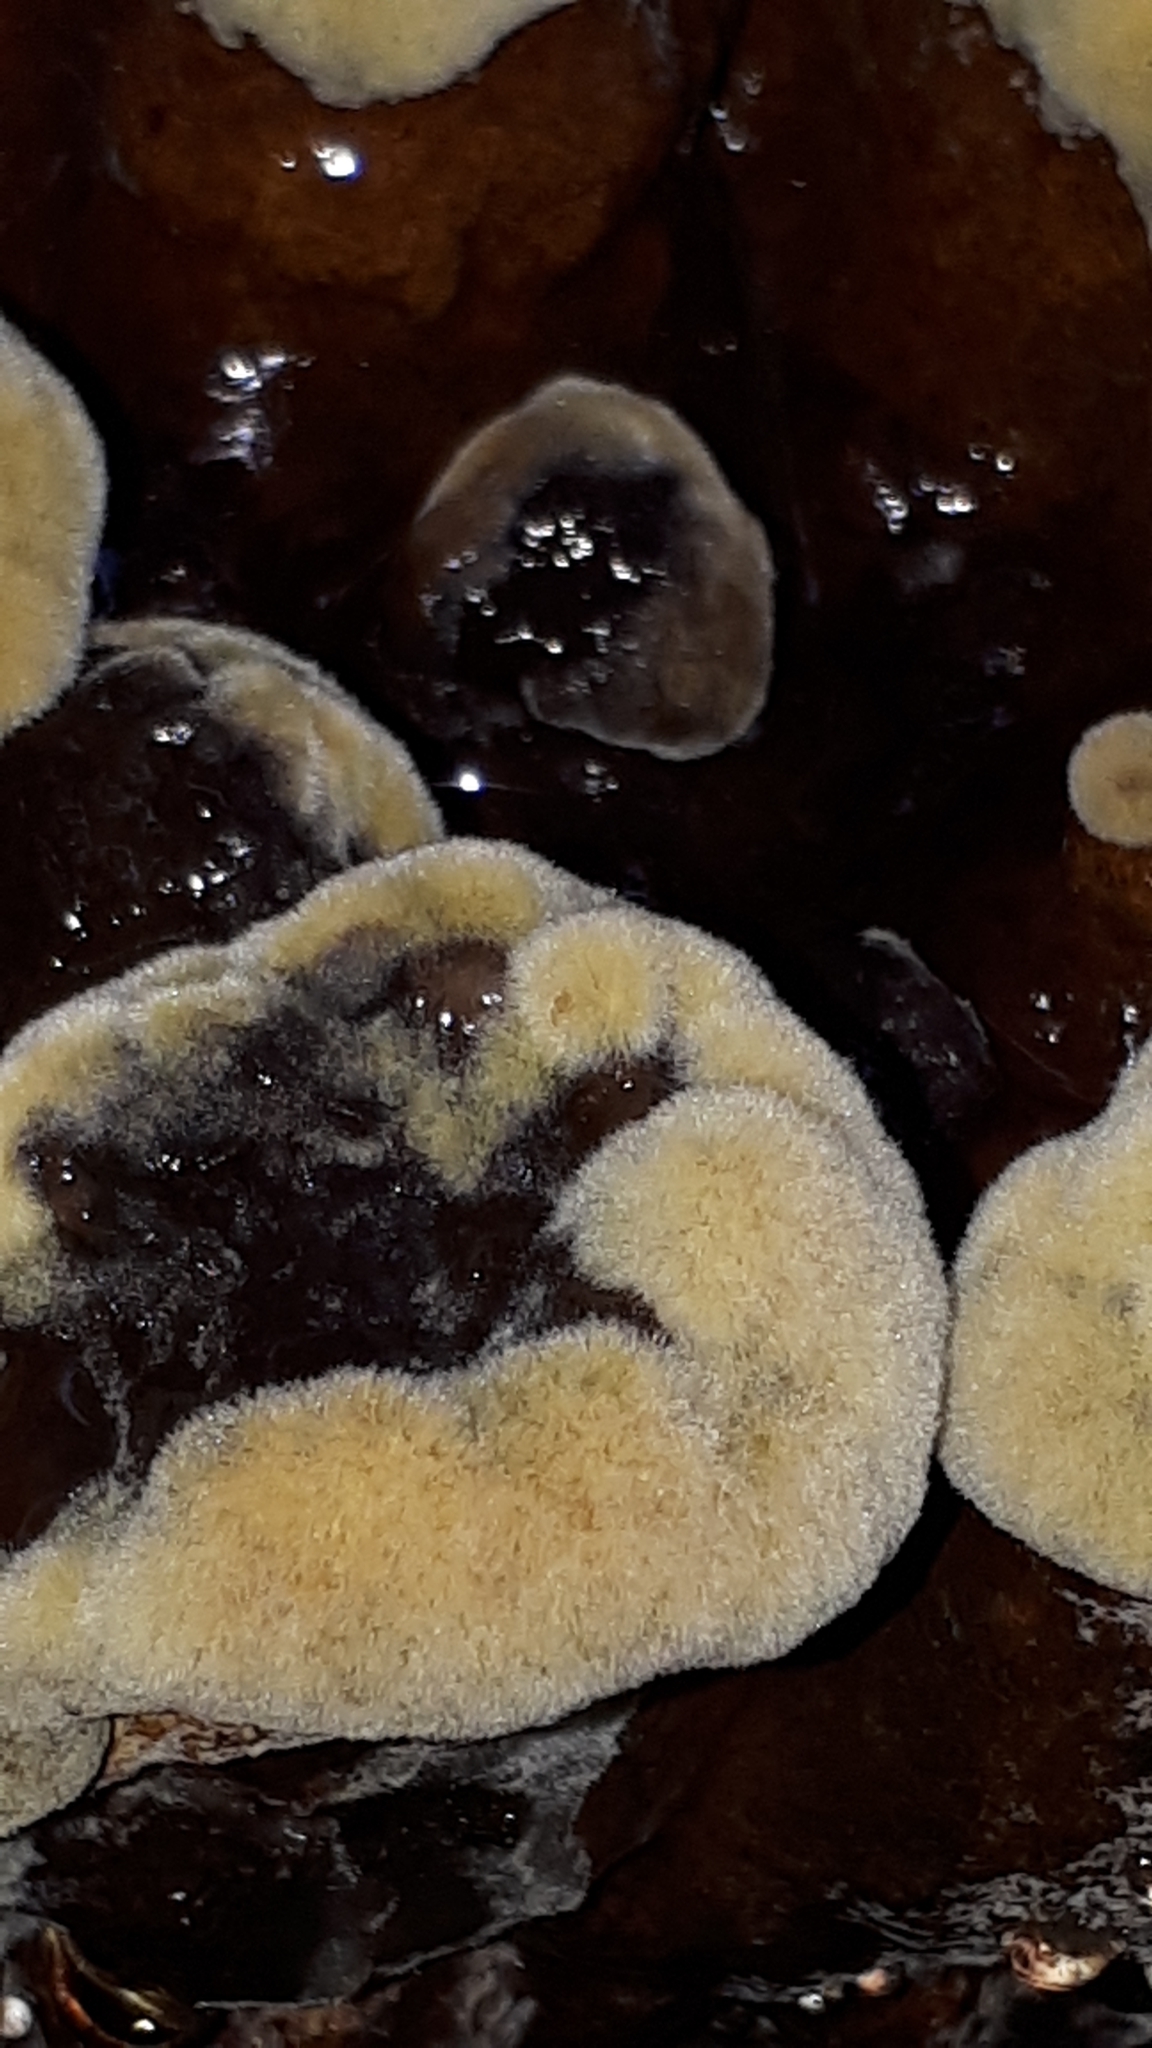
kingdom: Fungi
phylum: Basidiomycota
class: Agaricomycetes
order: Polyporales
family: Laetiporaceae
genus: Phaeolus
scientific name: Phaeolus schweinitzii
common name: Dyer's mazegill
